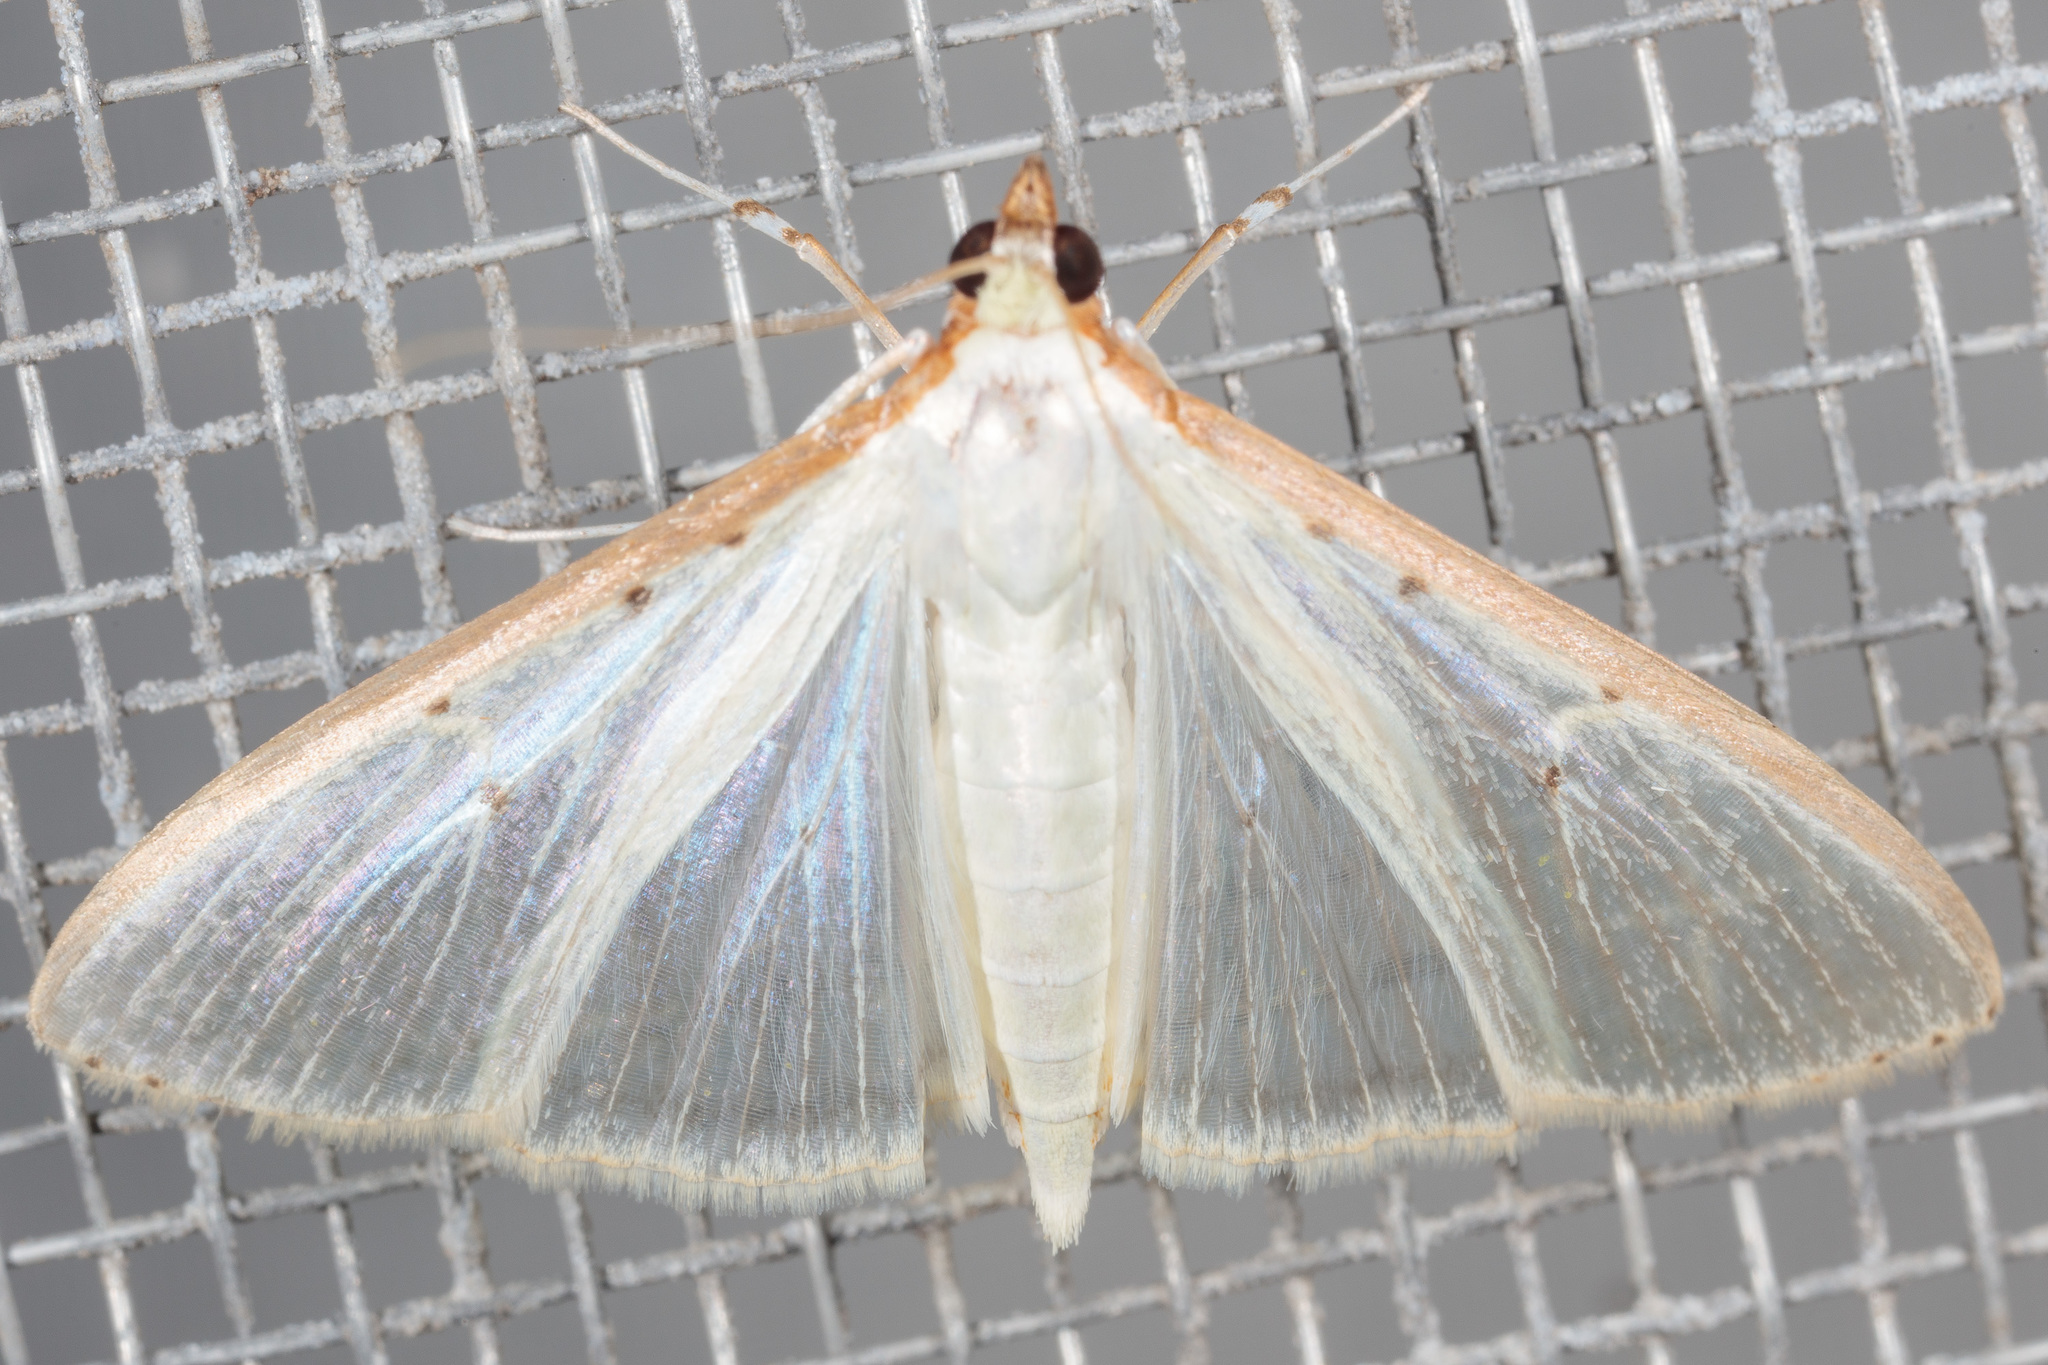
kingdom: Animalia
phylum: Arthropoda
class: Insecta
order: Lepidoptera
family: Crambidae
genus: Palpita
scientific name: Palpita quadristigmalis
